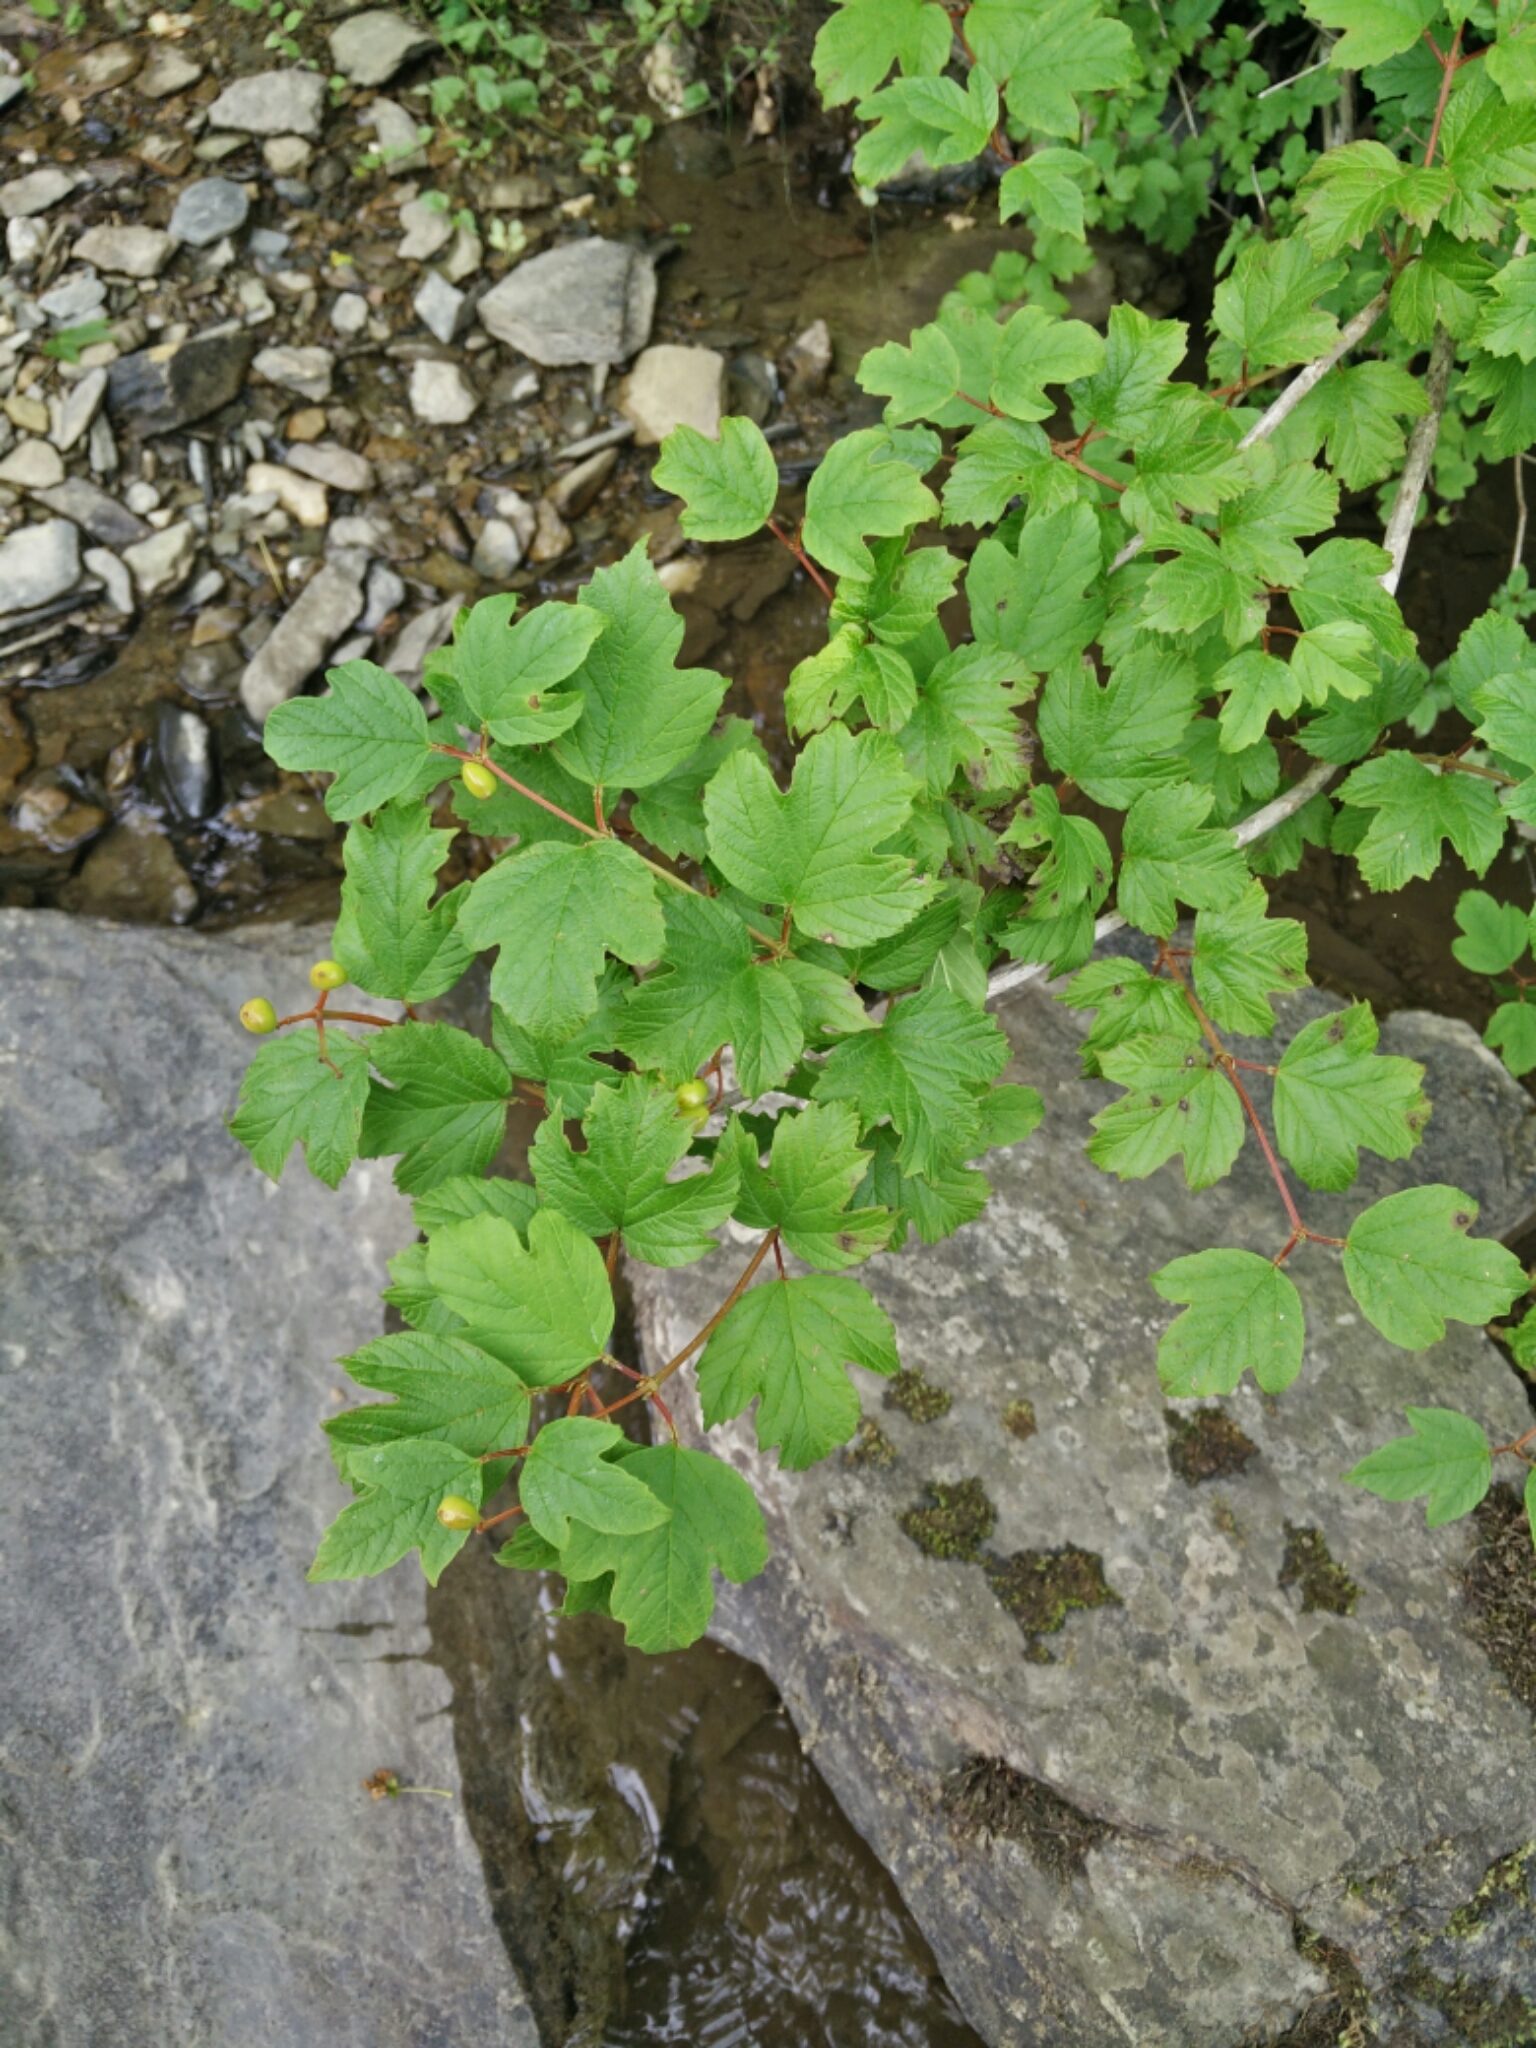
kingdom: Plantae
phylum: Tracheophyta
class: Magnoliopsida
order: Dipsacales
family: Viburnaceae
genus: Viburnum
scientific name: Viburnum opulus
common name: Guelder-rose
